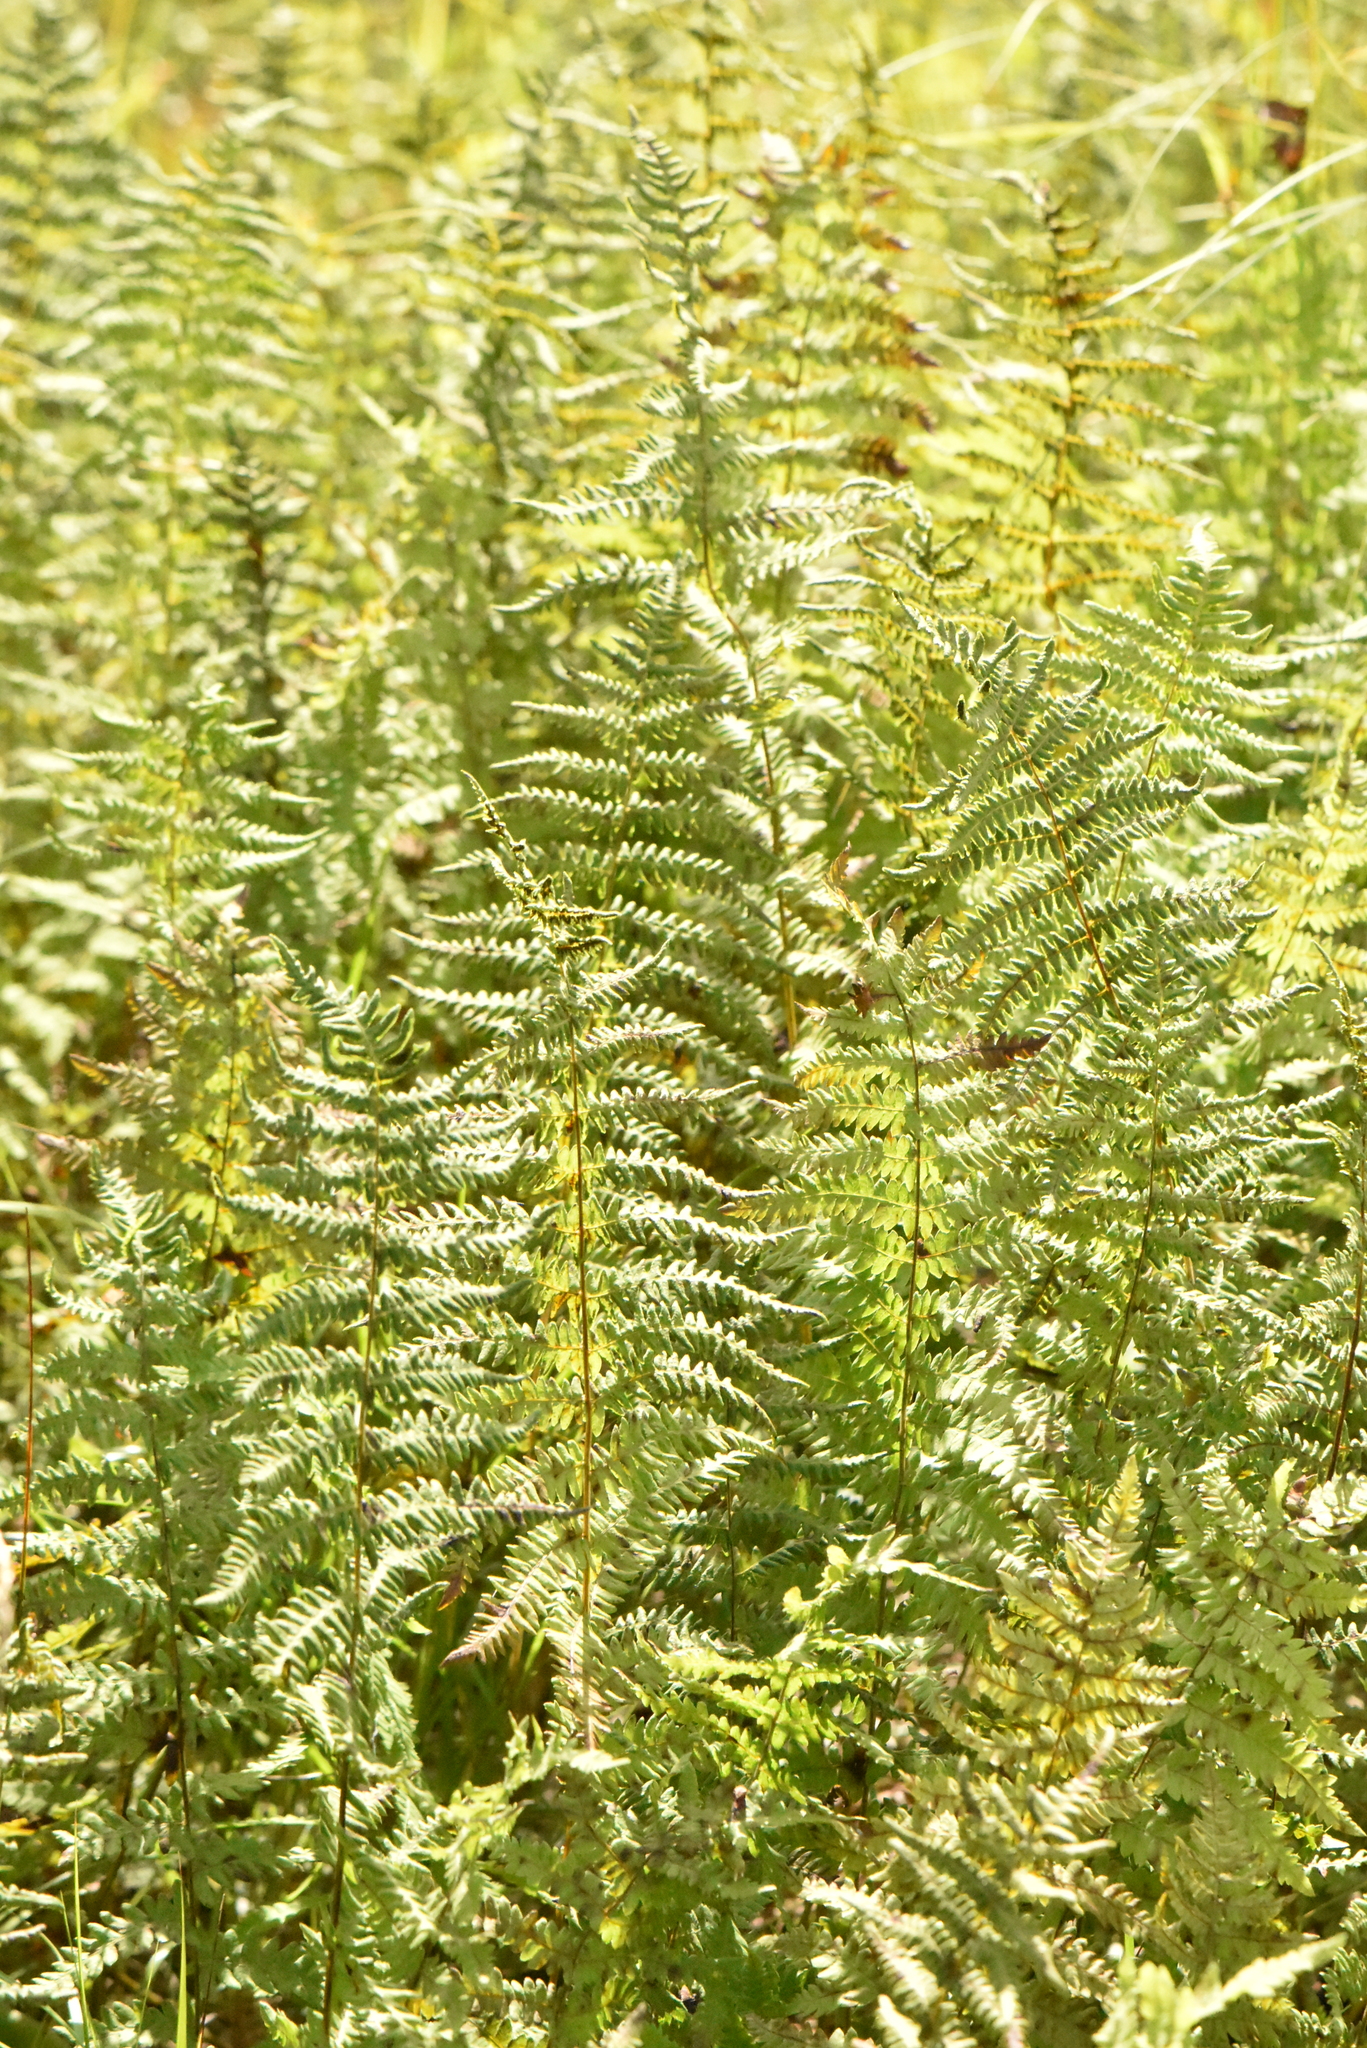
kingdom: Plantae
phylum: Tracheophyta
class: Polypodiopsida
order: Polypodiales
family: Thelypteridaceae
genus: Thelypteris
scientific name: Thelypteris palustris
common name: Marsh fern
